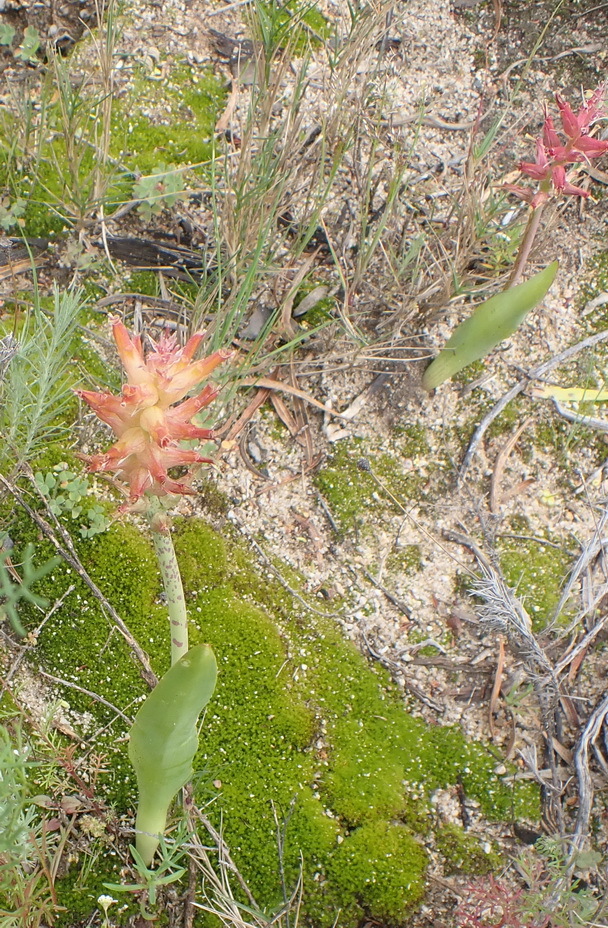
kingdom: Plantae
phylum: Tracheophyta
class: Liliopsida
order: Asparagales
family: Asparagaceae
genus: Lachenalia
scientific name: Lachenalia orchioides
